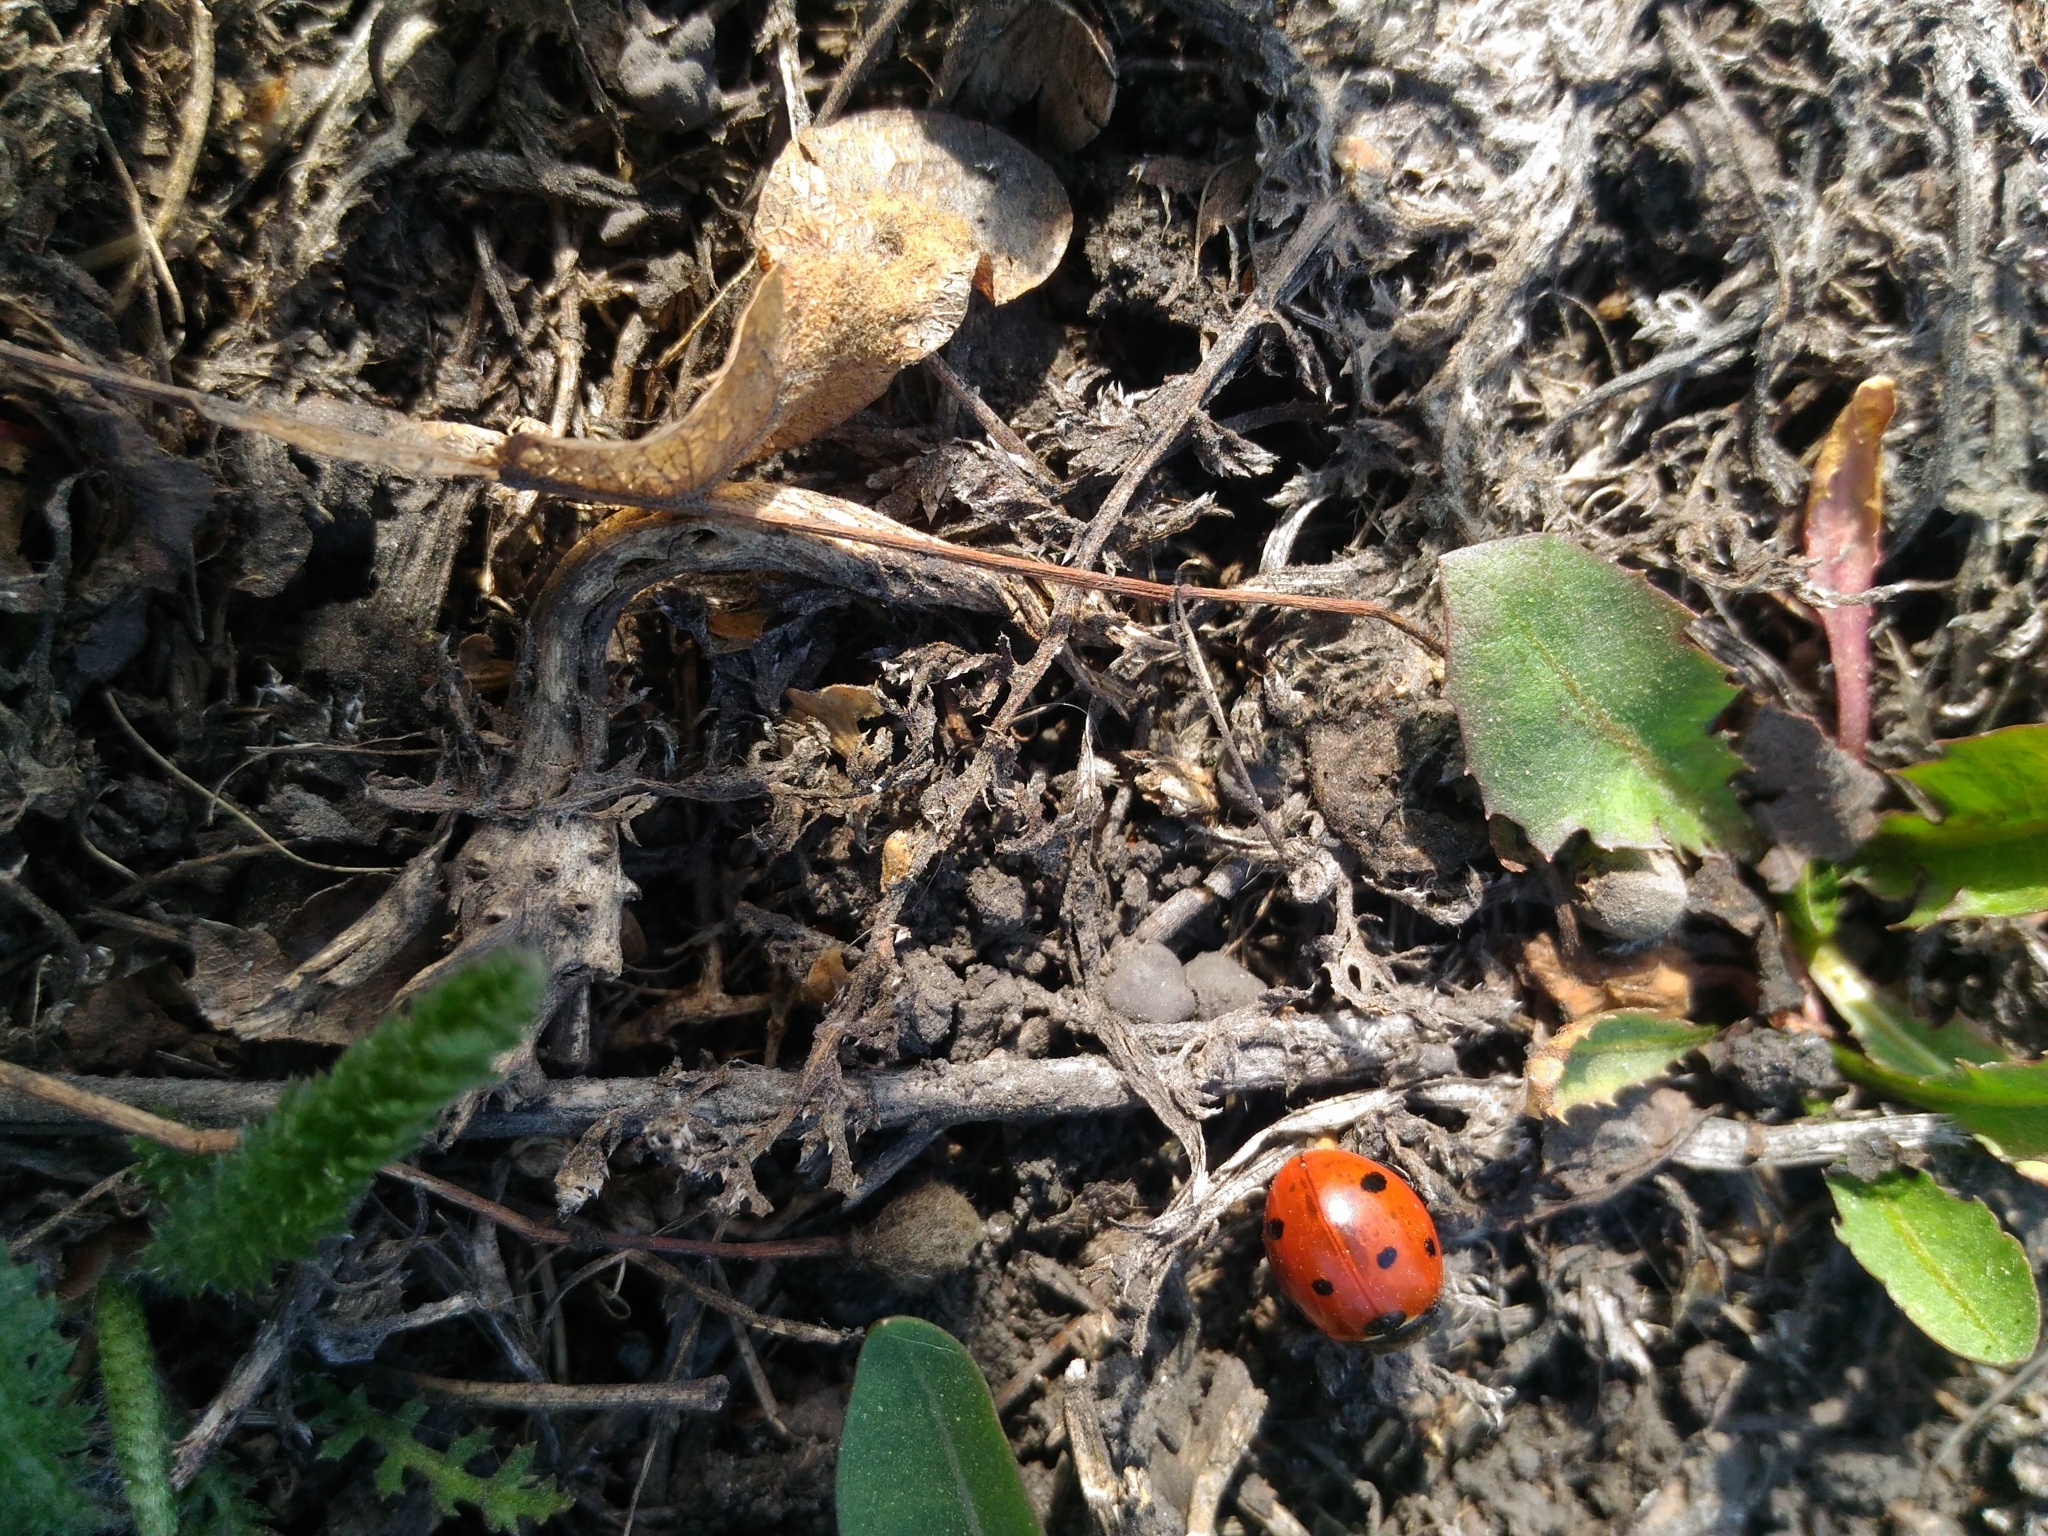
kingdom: Animalia
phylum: Arthropoda
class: Insecta
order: Coleoptera
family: Coccinellidae
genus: Coccinella
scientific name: Coccinella septempunctata
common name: Sevenspotted lady beetle
